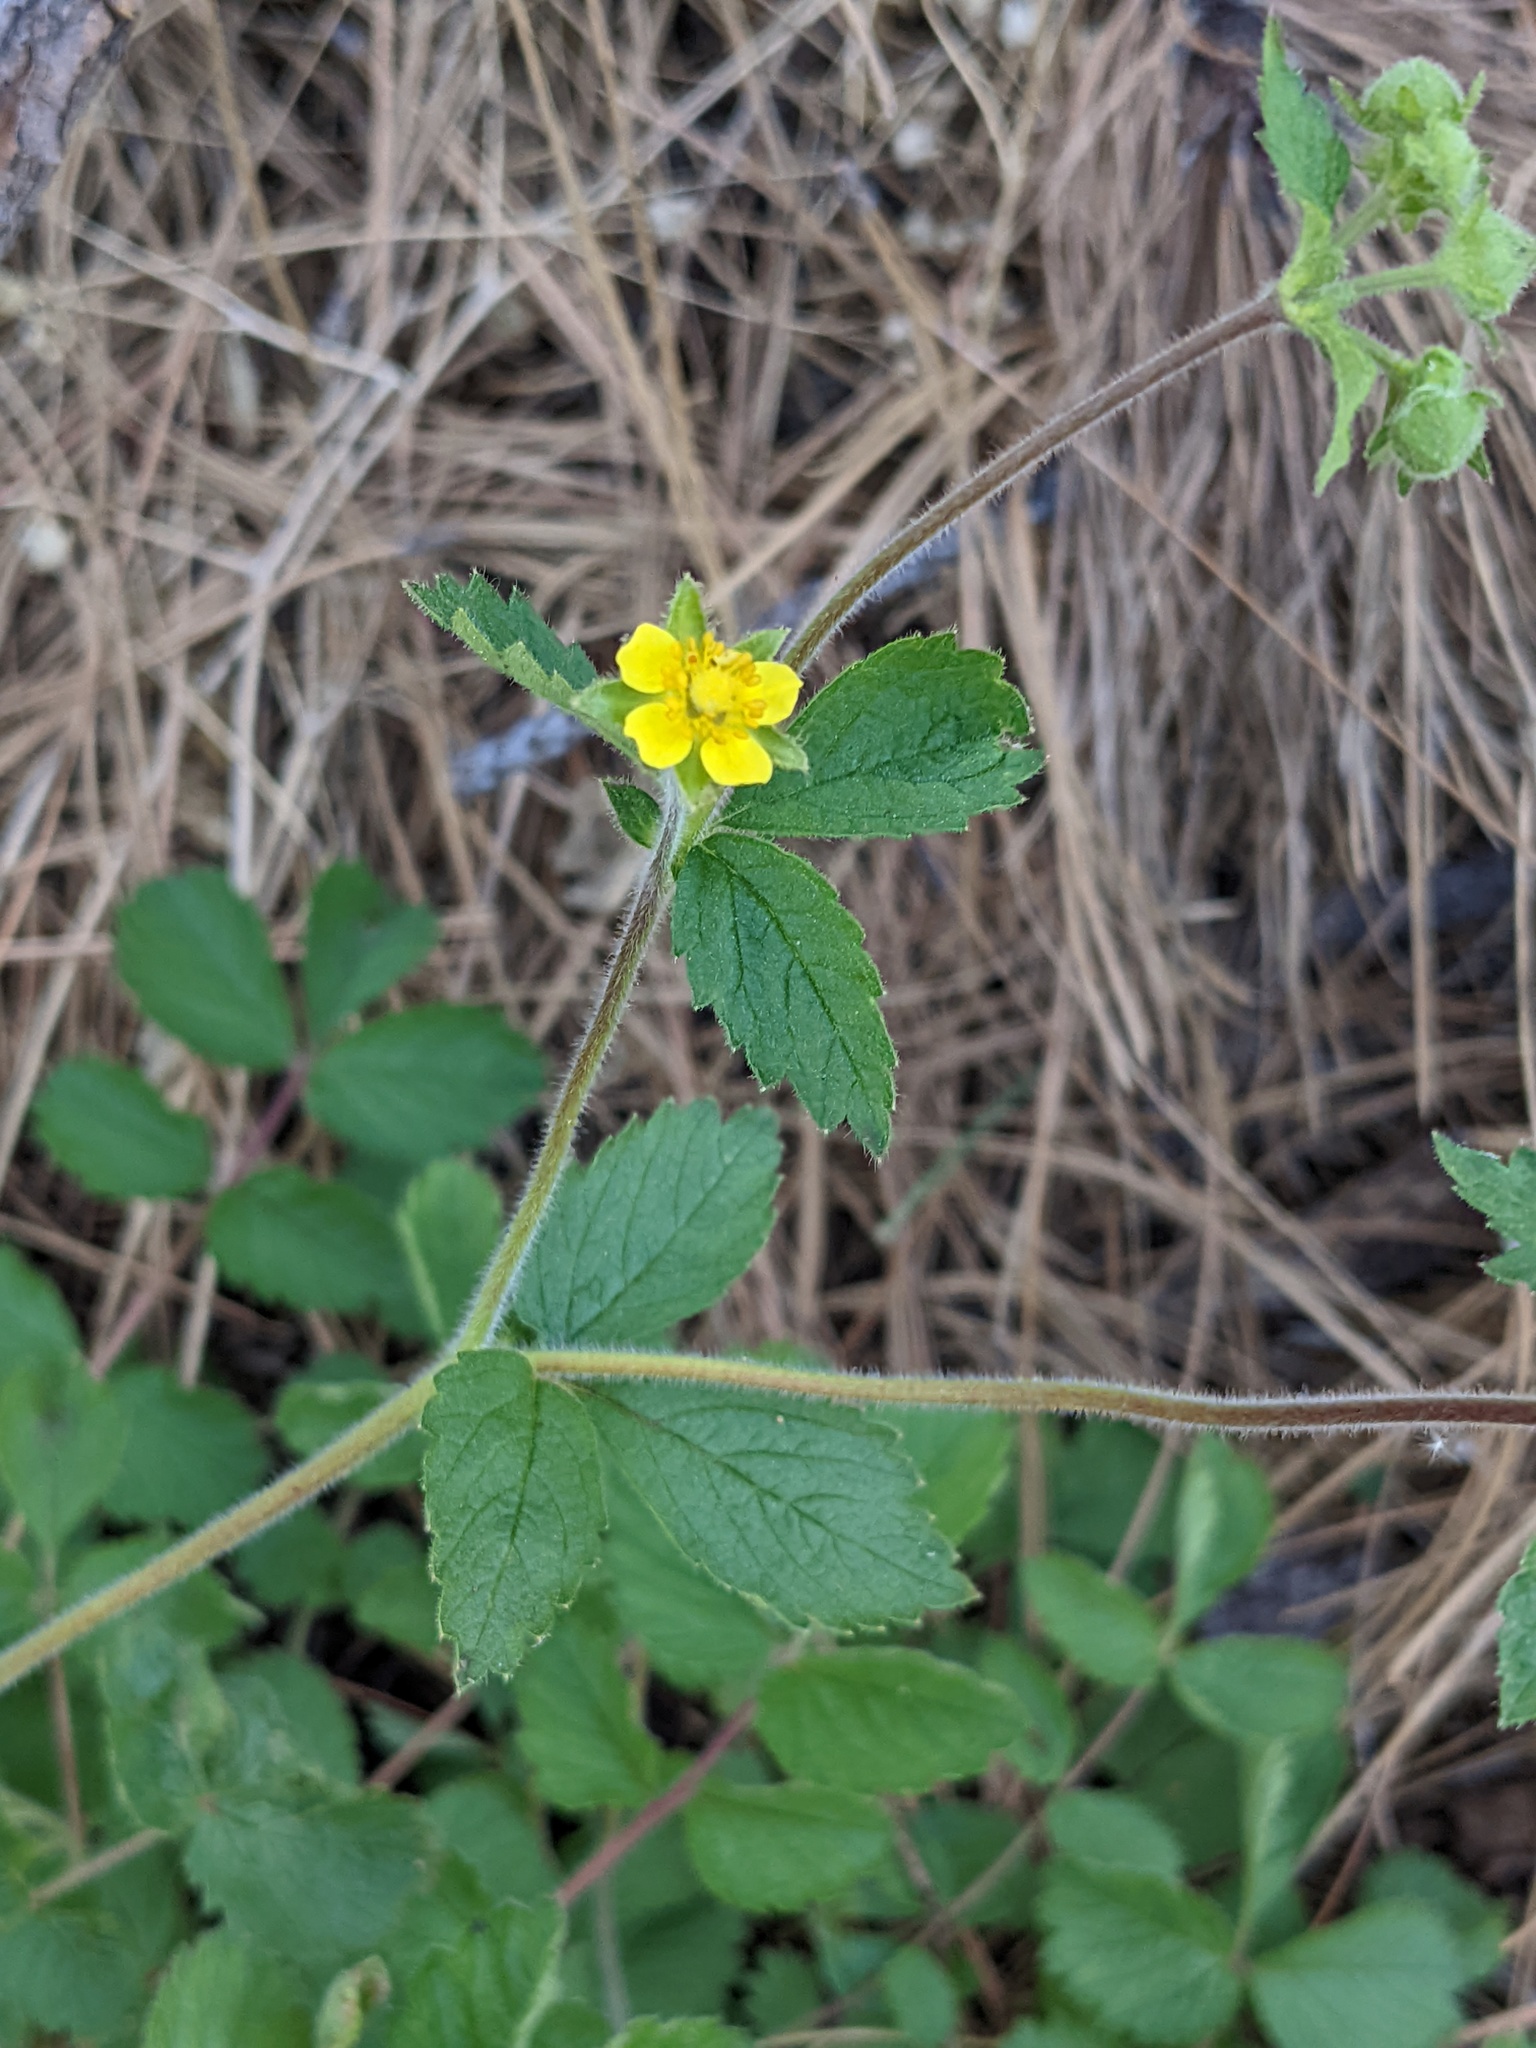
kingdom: Plantae
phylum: Tracheophyta
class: Magnoliopsida
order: Rosales
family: Rosaceae
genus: Drymocallis
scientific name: Drymocallis glandulosa
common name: Sticky cinquefoil
